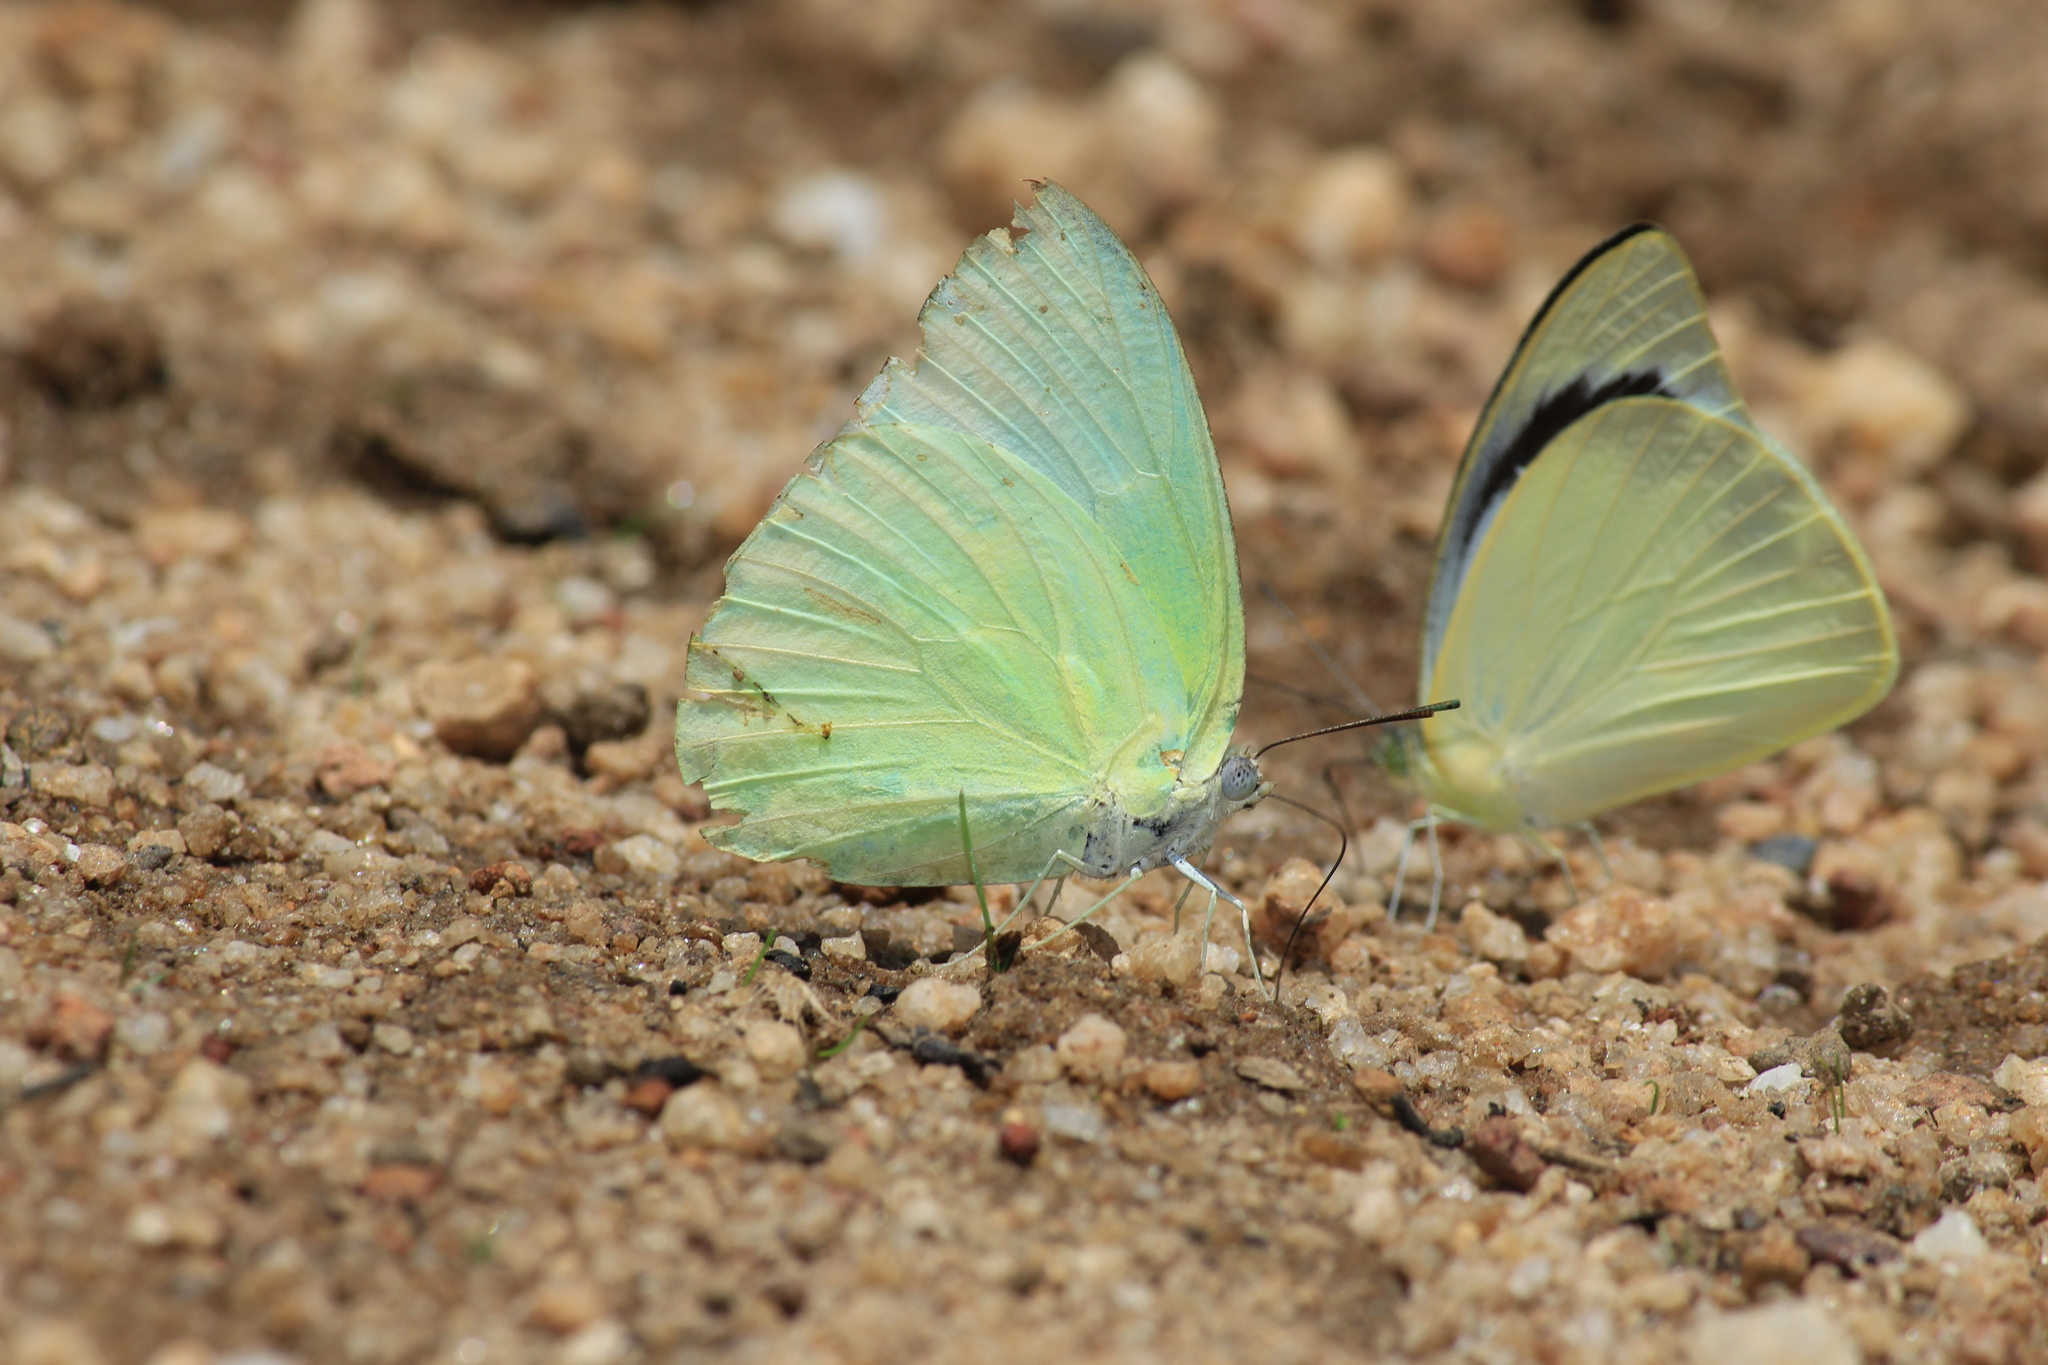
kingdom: Animalia
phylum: Arthropoda
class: Insecta
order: Lepidoptera
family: Pieridae
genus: Catopsilia
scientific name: Catopsilia pomona
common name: Common emigrant
